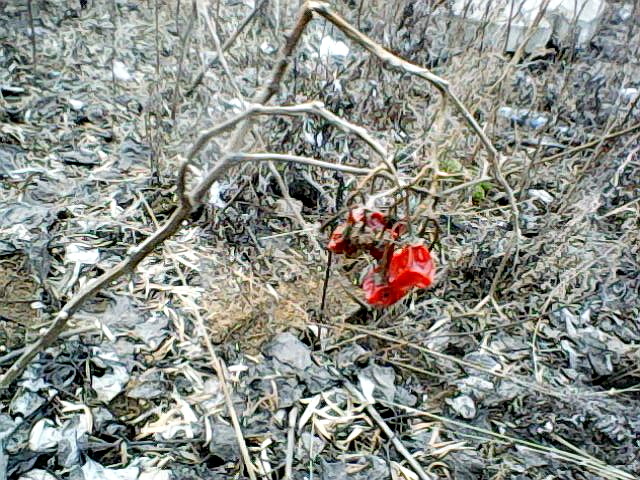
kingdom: Plantae
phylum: Tracheophyta
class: Magnoliopsida
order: Solanales
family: Solanaceae
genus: Solanum
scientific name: Solanum dulcamara
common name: Climbing nightshade
